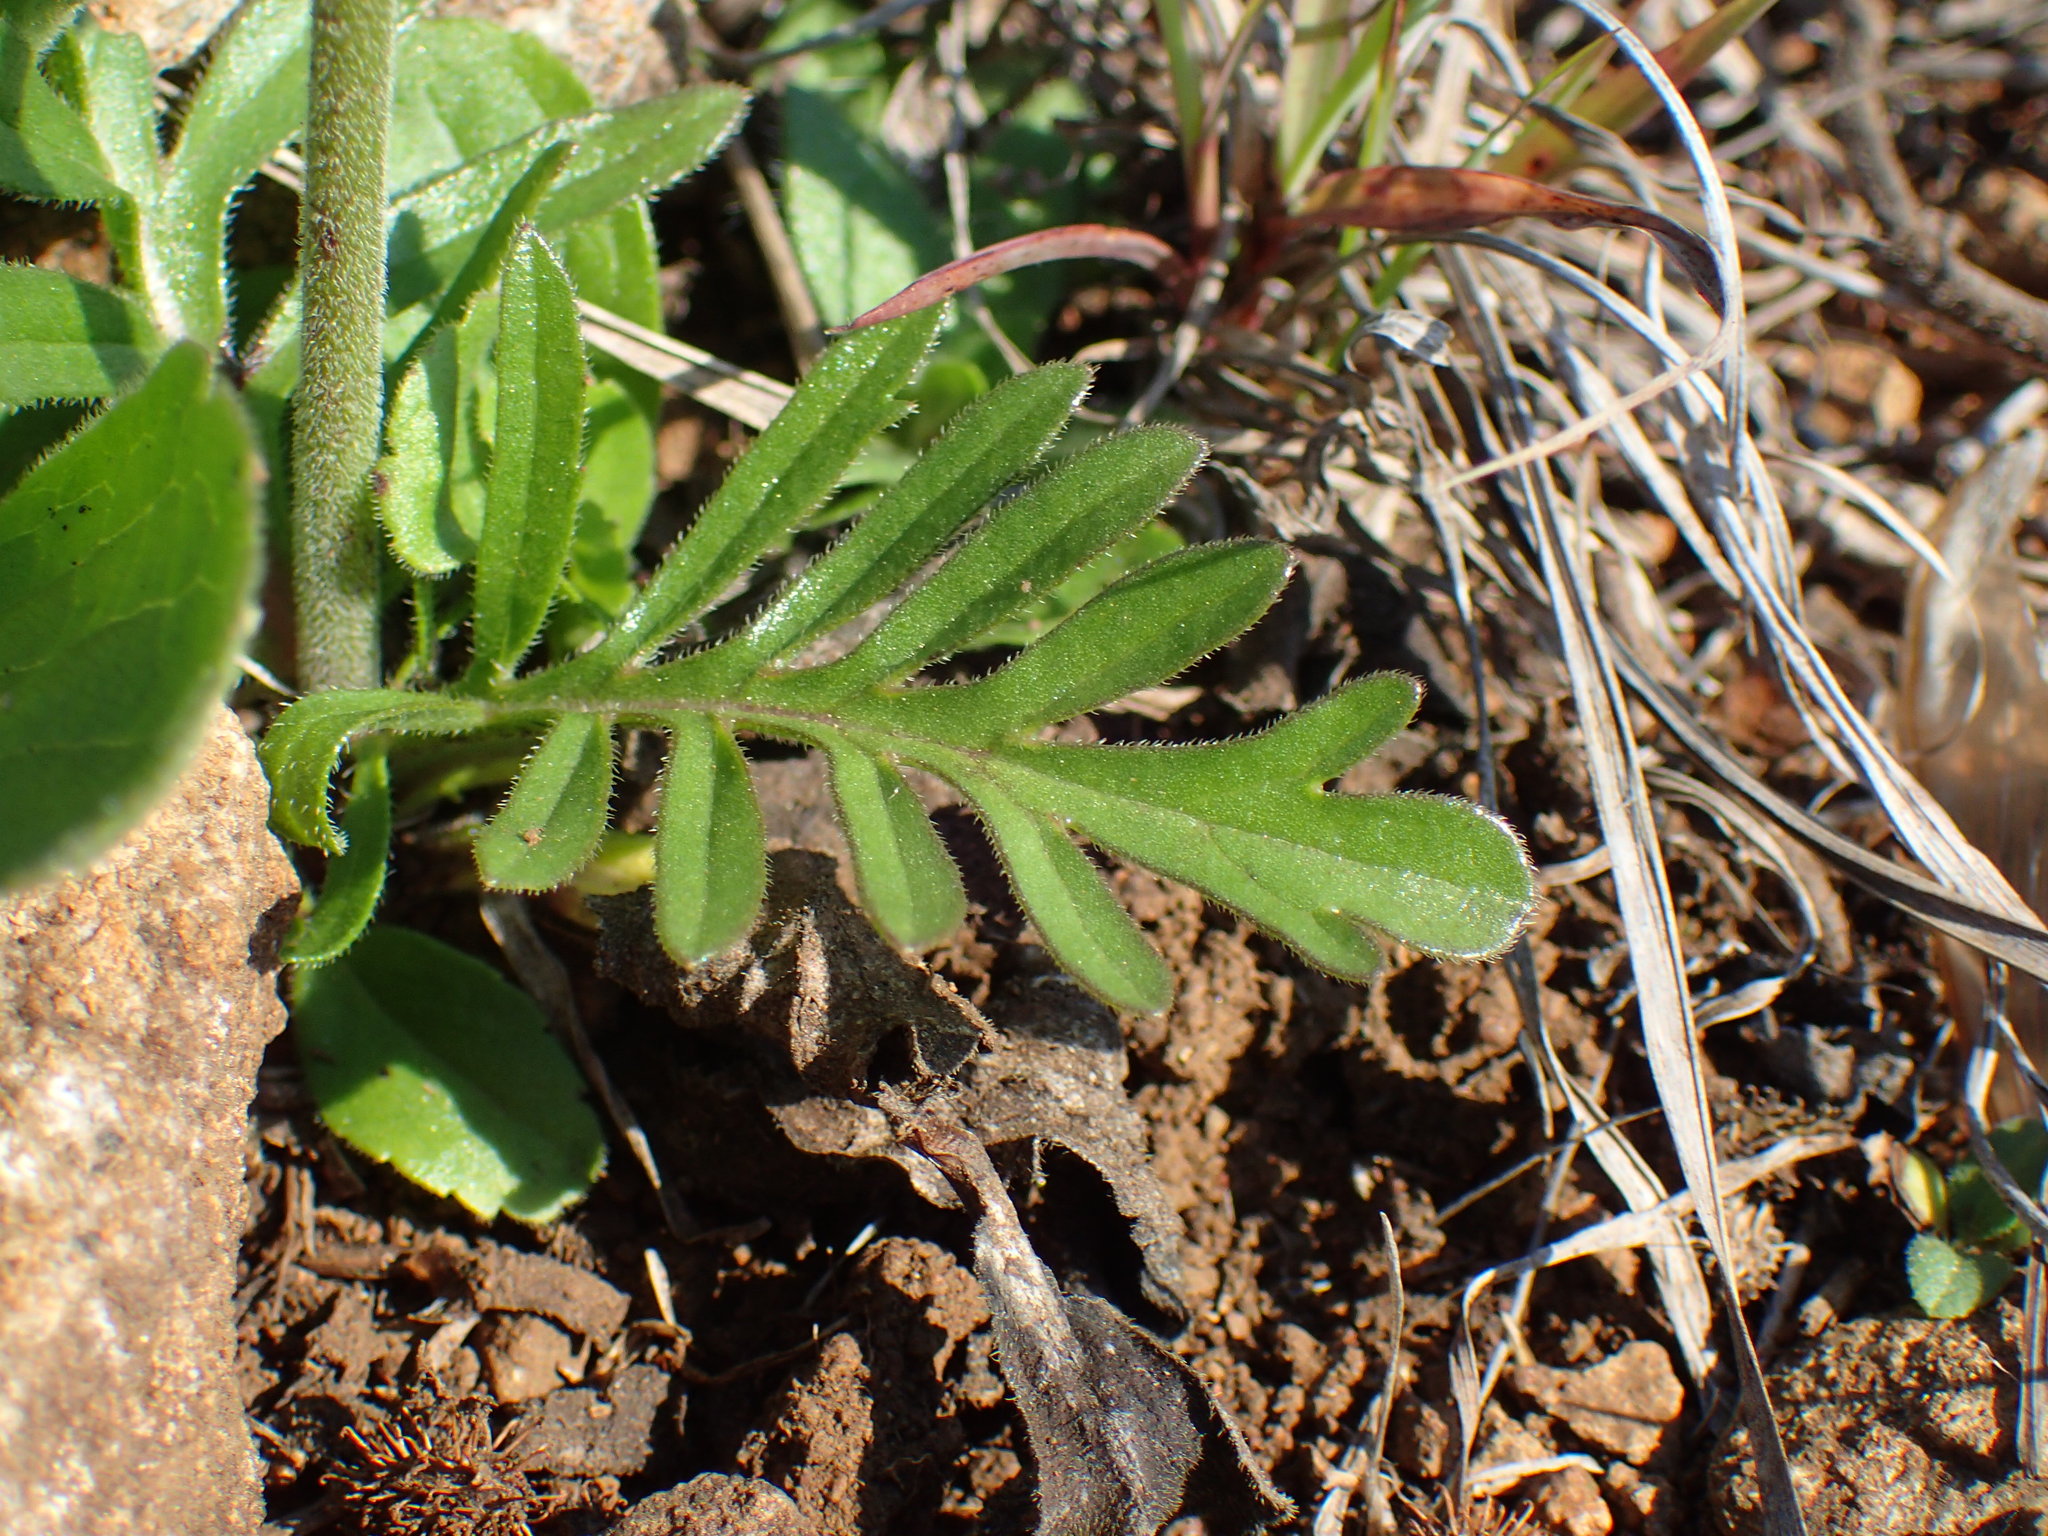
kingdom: Plantae
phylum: Tracheophyta
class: Magnoliopsida
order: Dipsacales
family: Caprifoliaceae
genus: Scabiosa
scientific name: Scabiosa columbaria
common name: Small scabious
